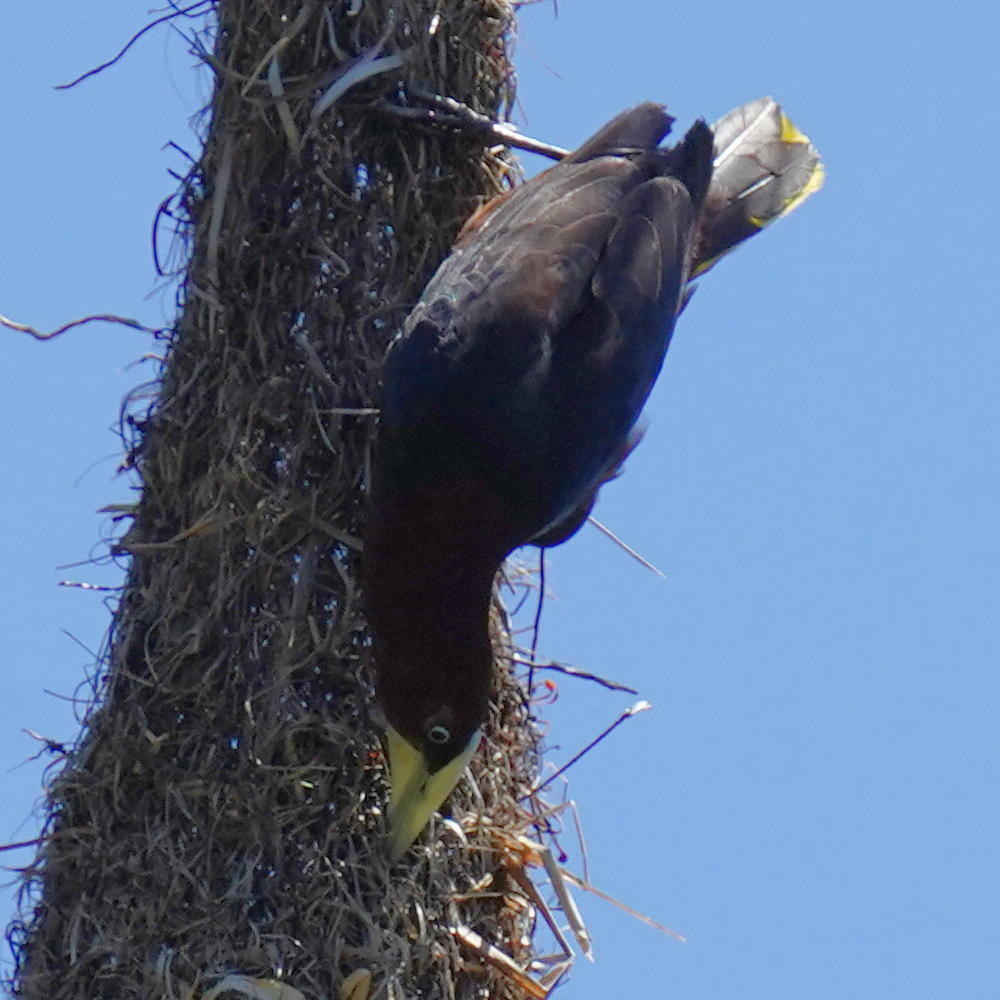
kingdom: Animalia
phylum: Chordata
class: Aves
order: Passeriformes
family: Icteridae
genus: Psarocolius
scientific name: Psarocolius wagleri
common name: Chestnut-headed oropendola
